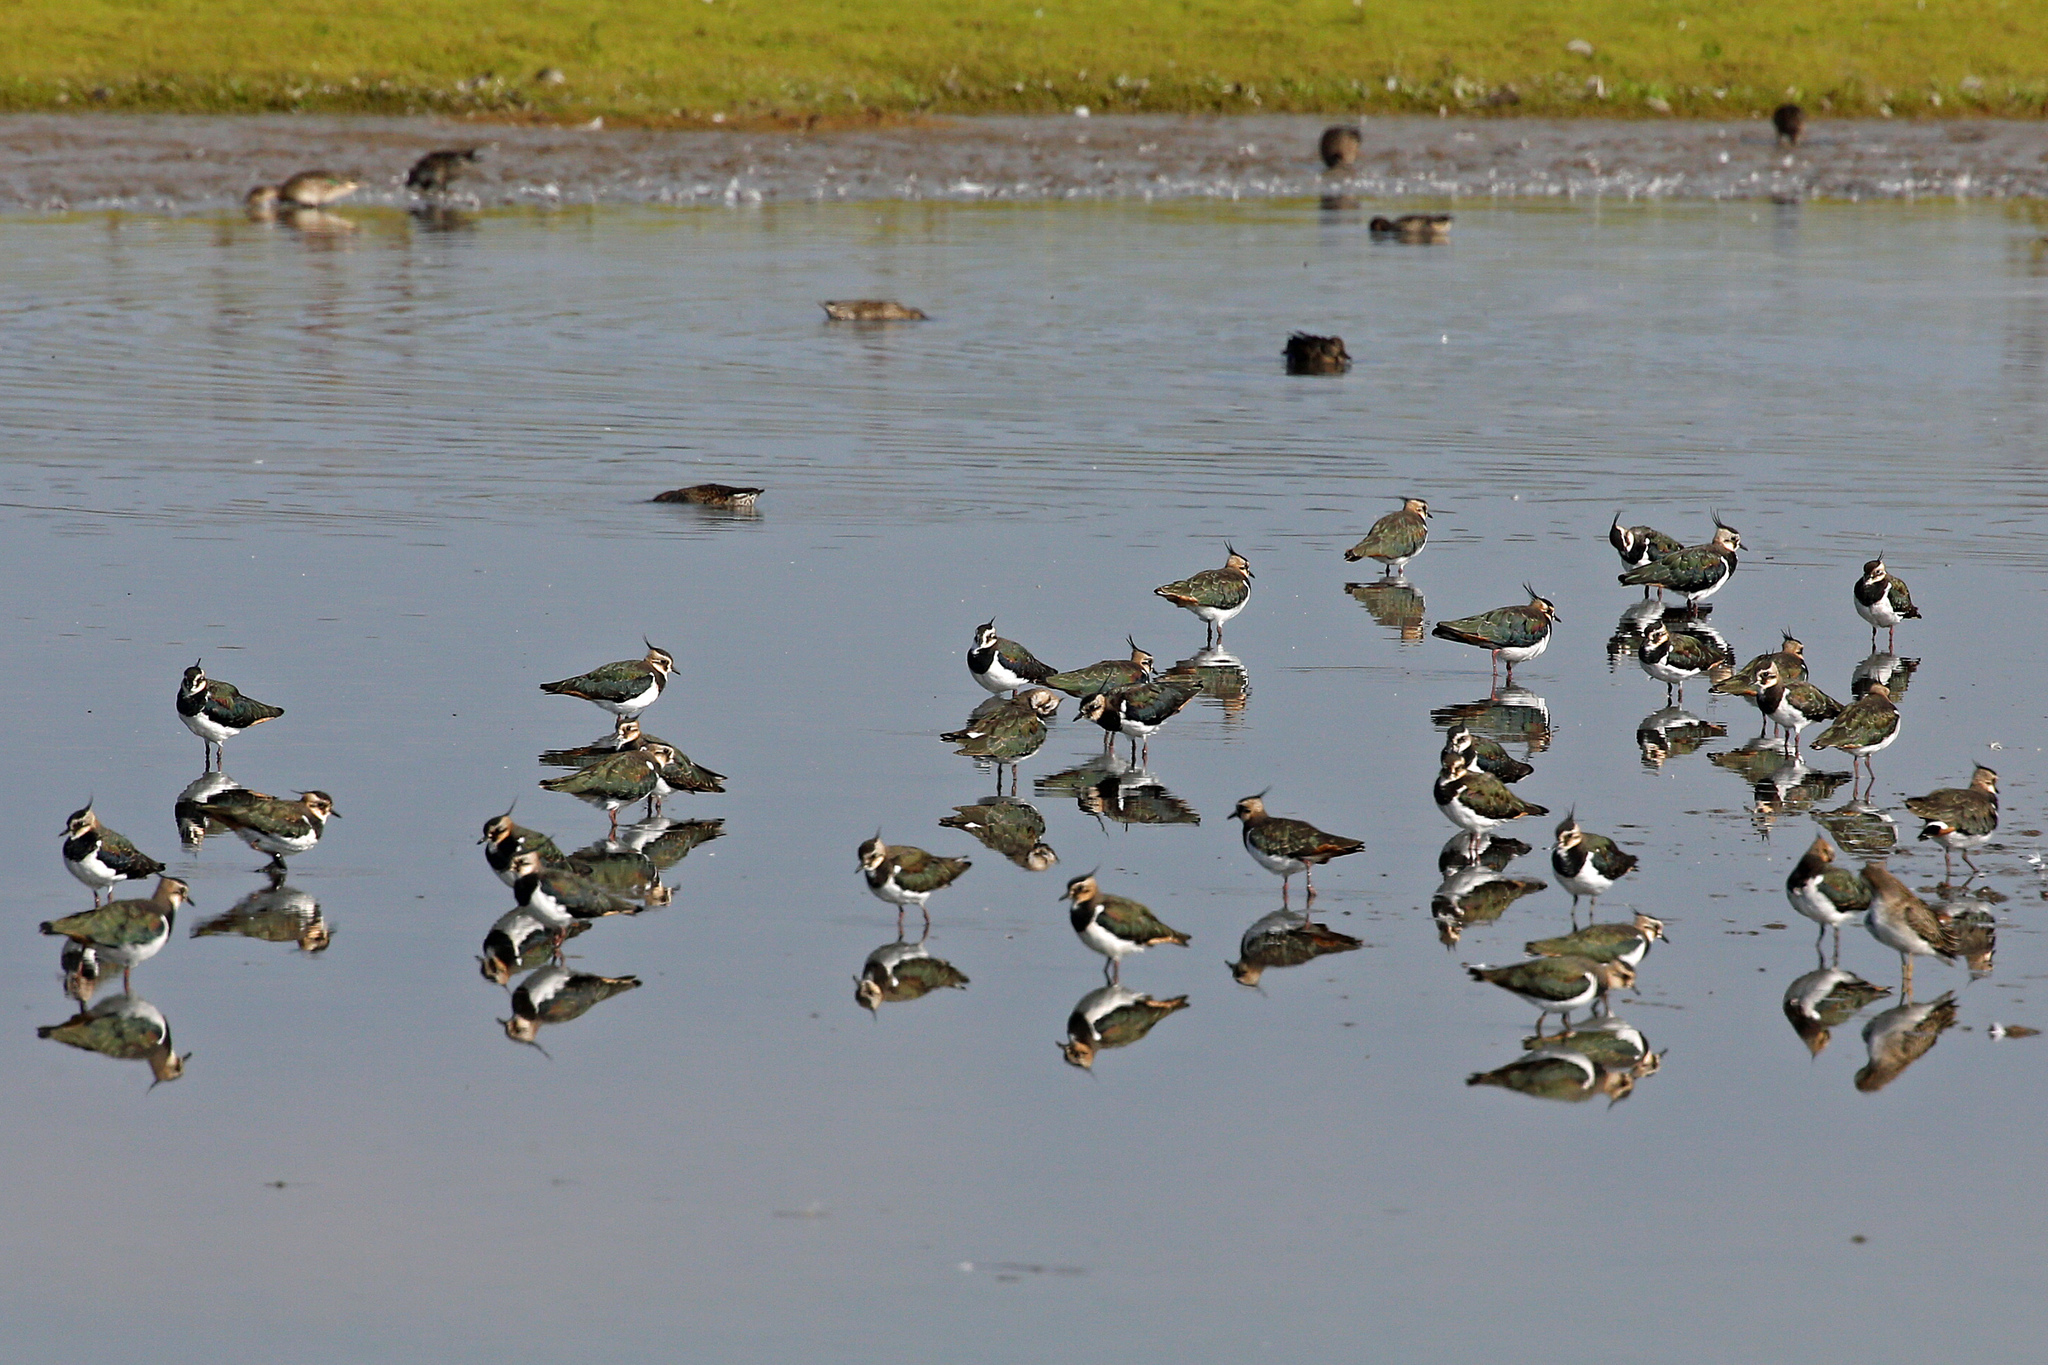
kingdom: Animalia
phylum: Chordata
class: Aves
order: Charadriiformes
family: Charadriidae
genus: Vanellus
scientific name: Vanellus vanellus
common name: Northern lapwing
